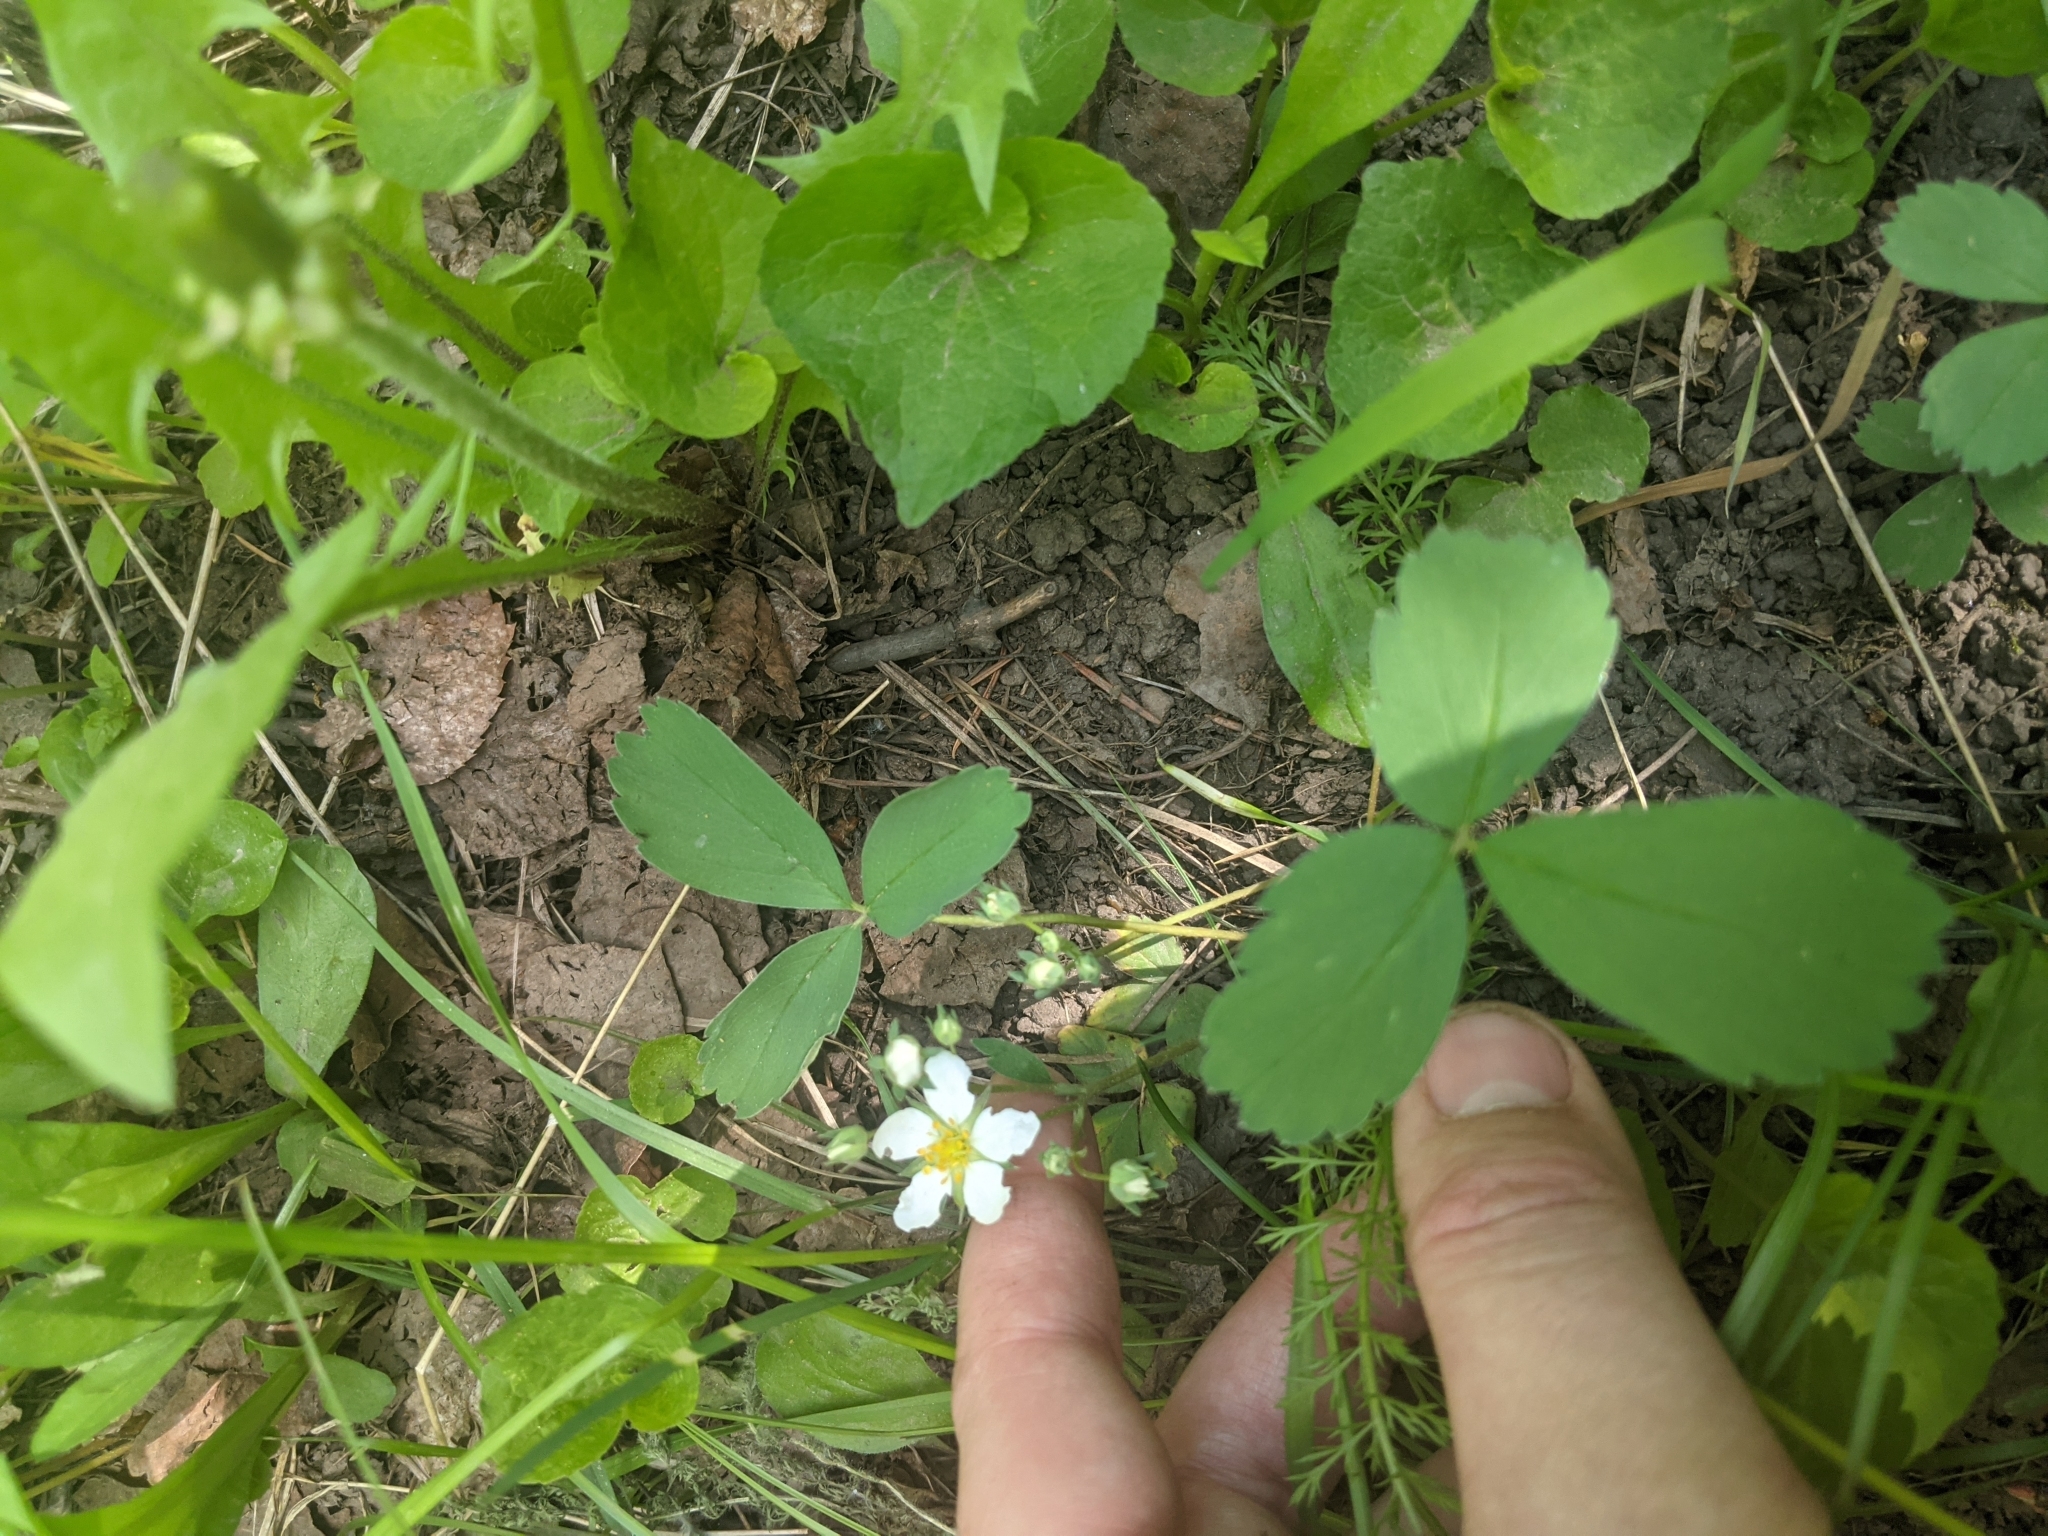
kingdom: Plantae
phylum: Tracheophyta
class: Magnoliopsida
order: Rosales
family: Rosaceae
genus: Fragaria
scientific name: Fragaria virginiana
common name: Thickleaved wild strawberry
